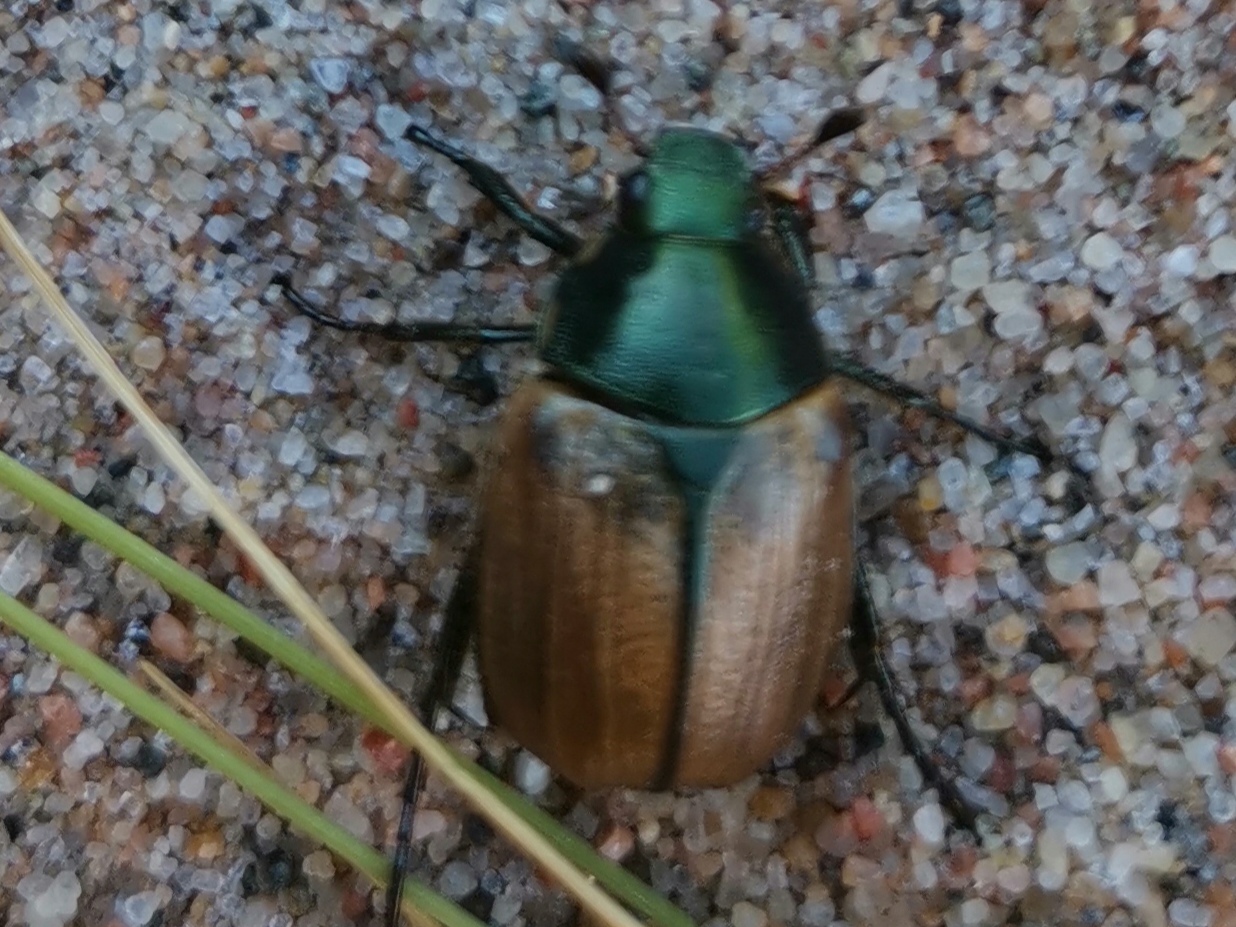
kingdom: Animalia
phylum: Arthropoda
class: Insecta
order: Coleoptera
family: Scarabaeidae
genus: Anomala
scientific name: Anomala dubia
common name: Dune chafer
